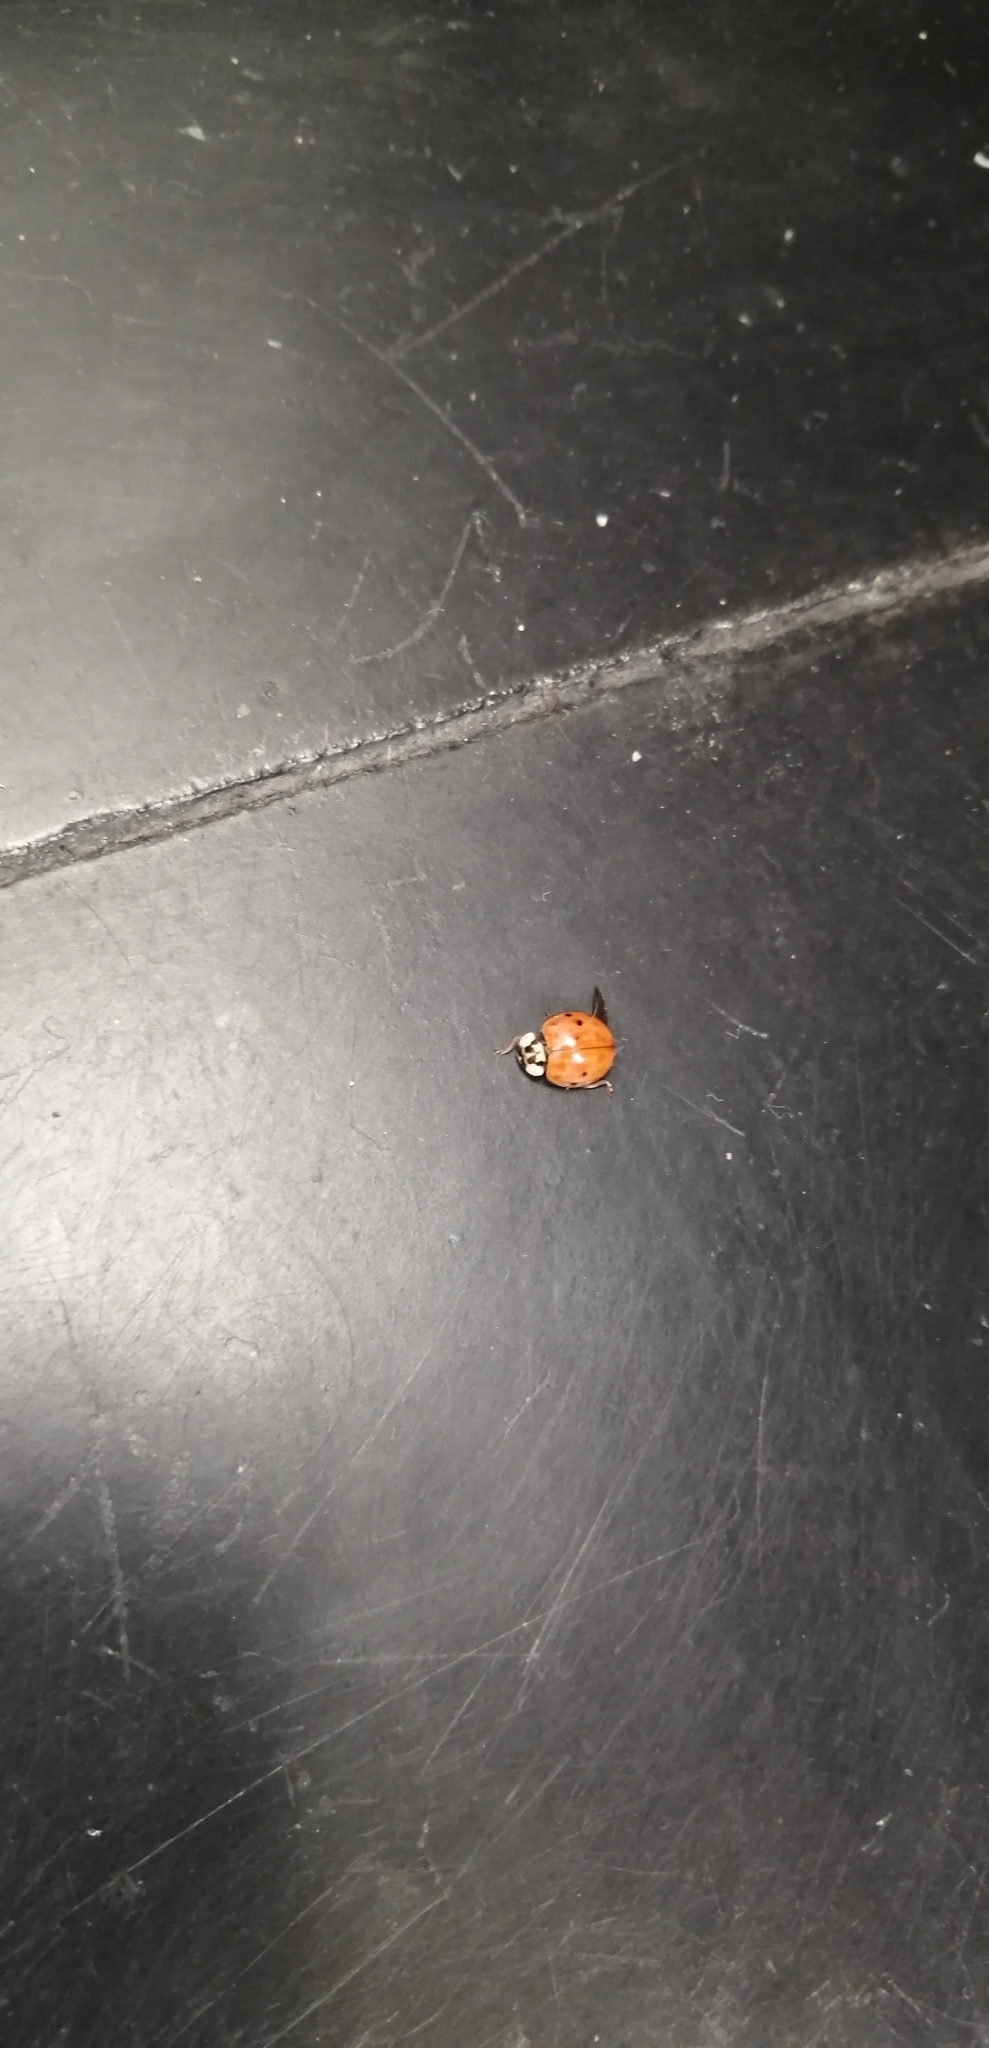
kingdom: Animalia
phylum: Arthropoda
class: Insecta
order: Coleoptera
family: Coccinellidae
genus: Harmonia
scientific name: Harmonia axyridis
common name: Harlequin ladybird
